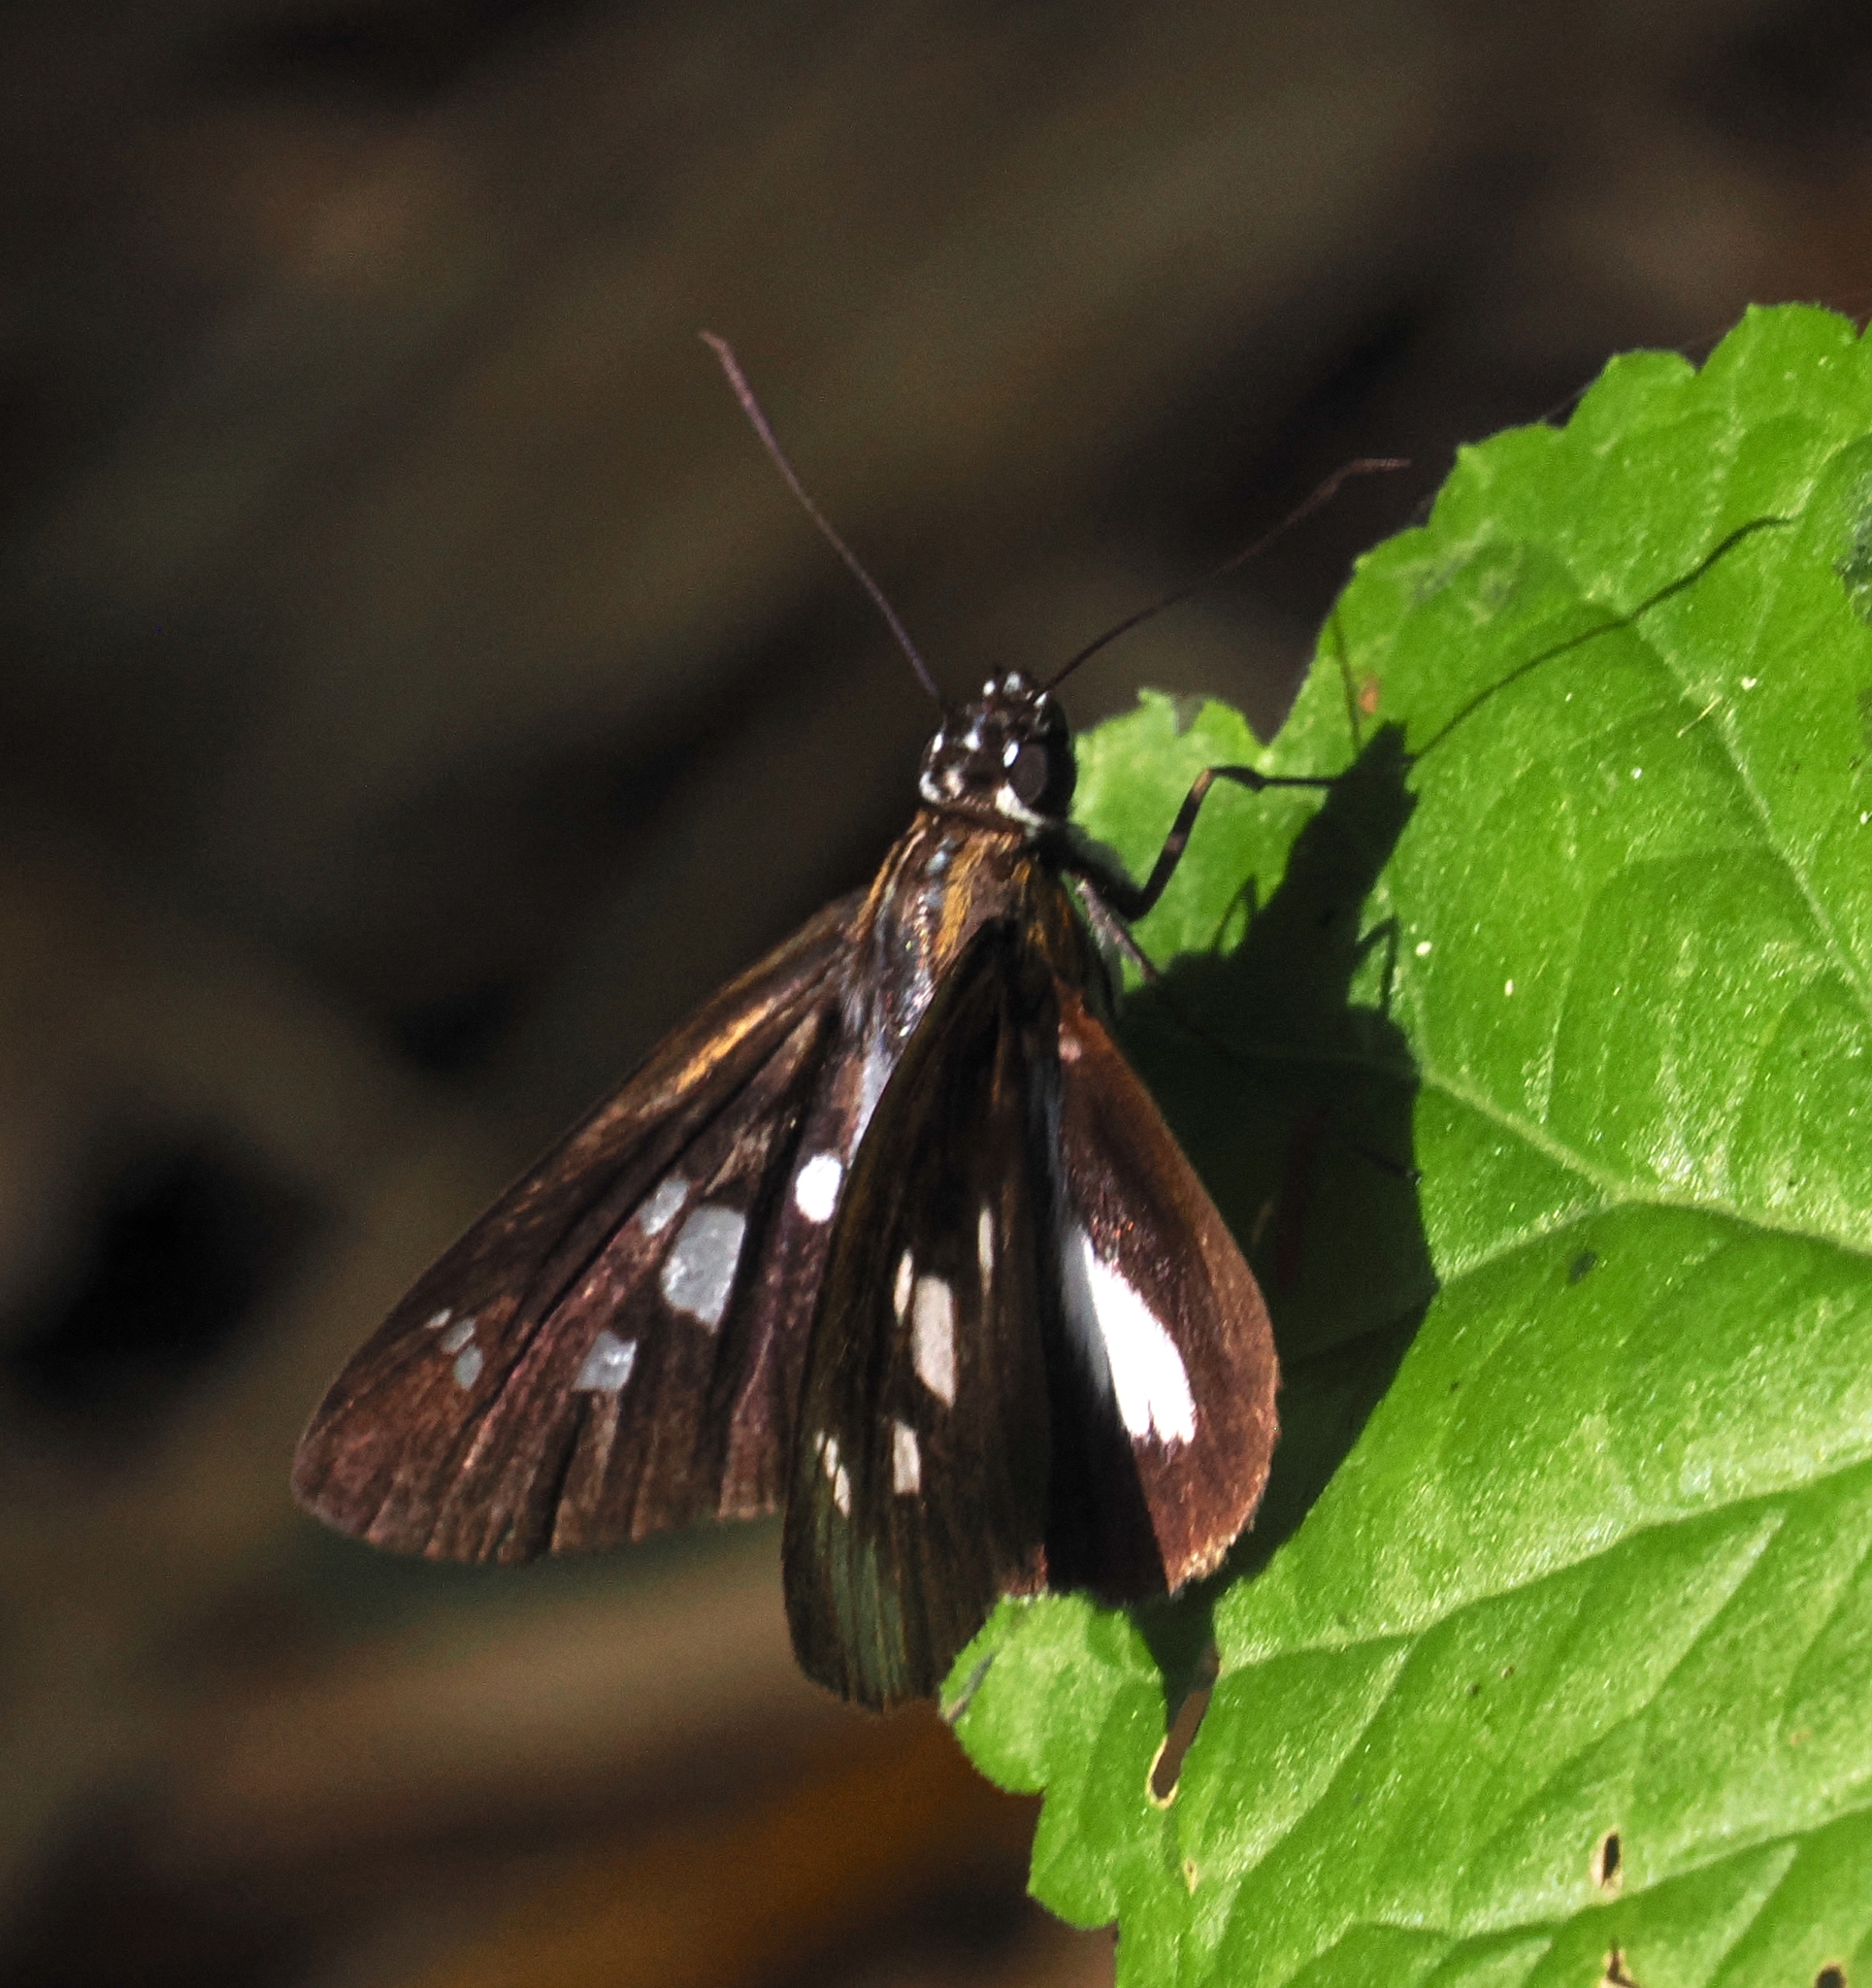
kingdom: Animalia
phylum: Arthropoda
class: Insecta
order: Lepidoptera
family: Hesperiidae
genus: Vettius
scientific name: Vettius phyllus
